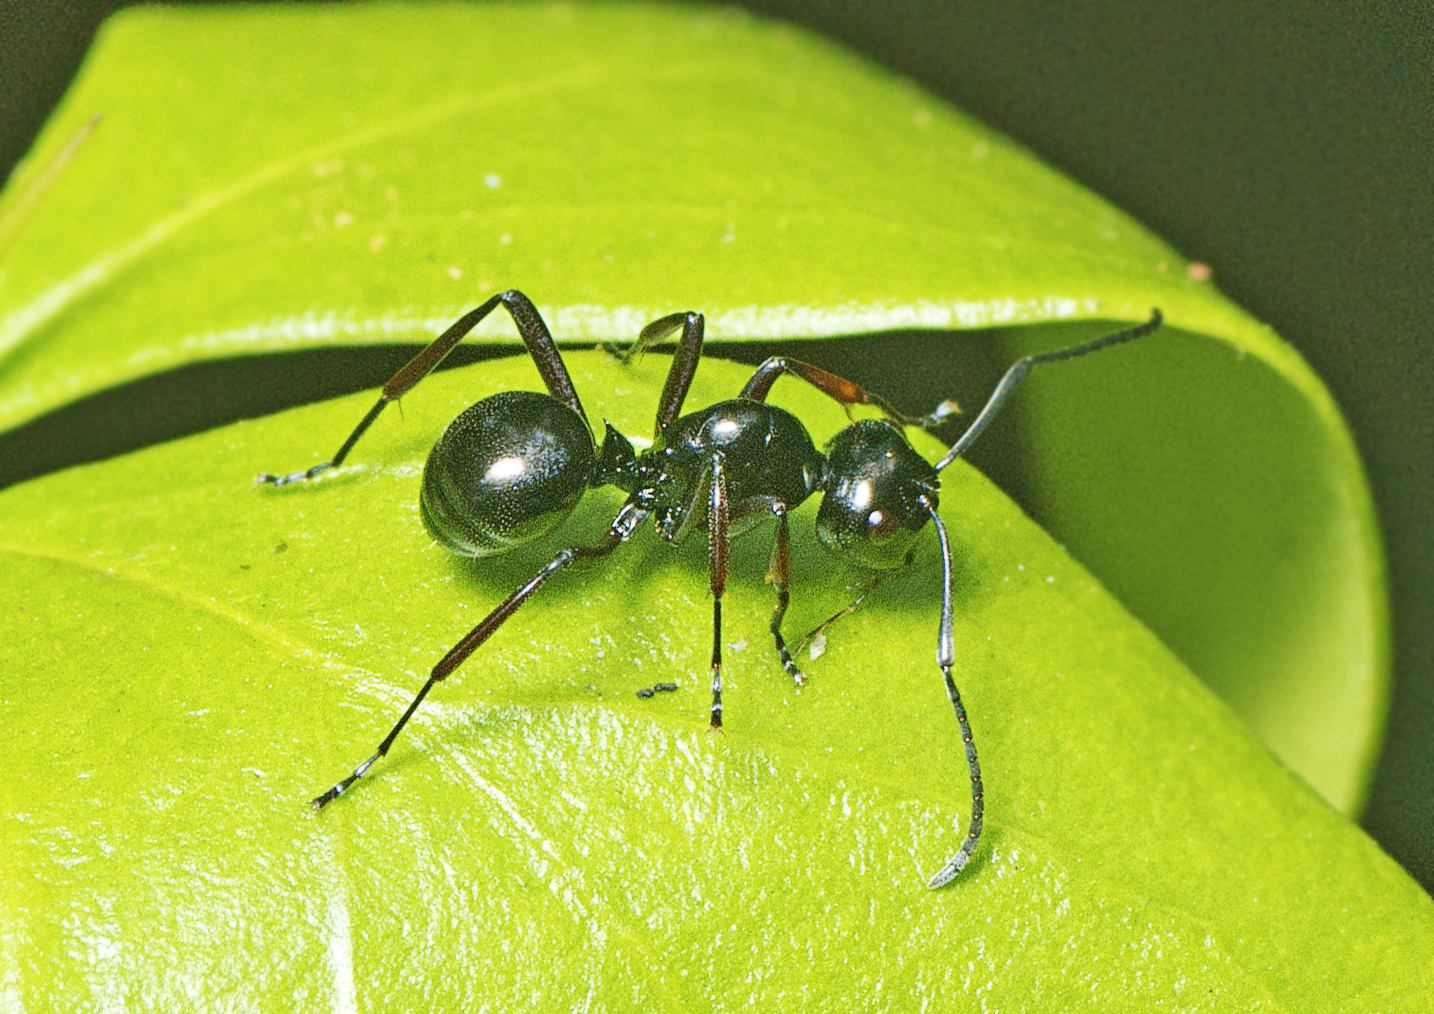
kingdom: Animalia
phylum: Arthropoda
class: Insecta
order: Hymenoptera
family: Formicidae
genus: Polyrhachis
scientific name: Polyrhachis australis
